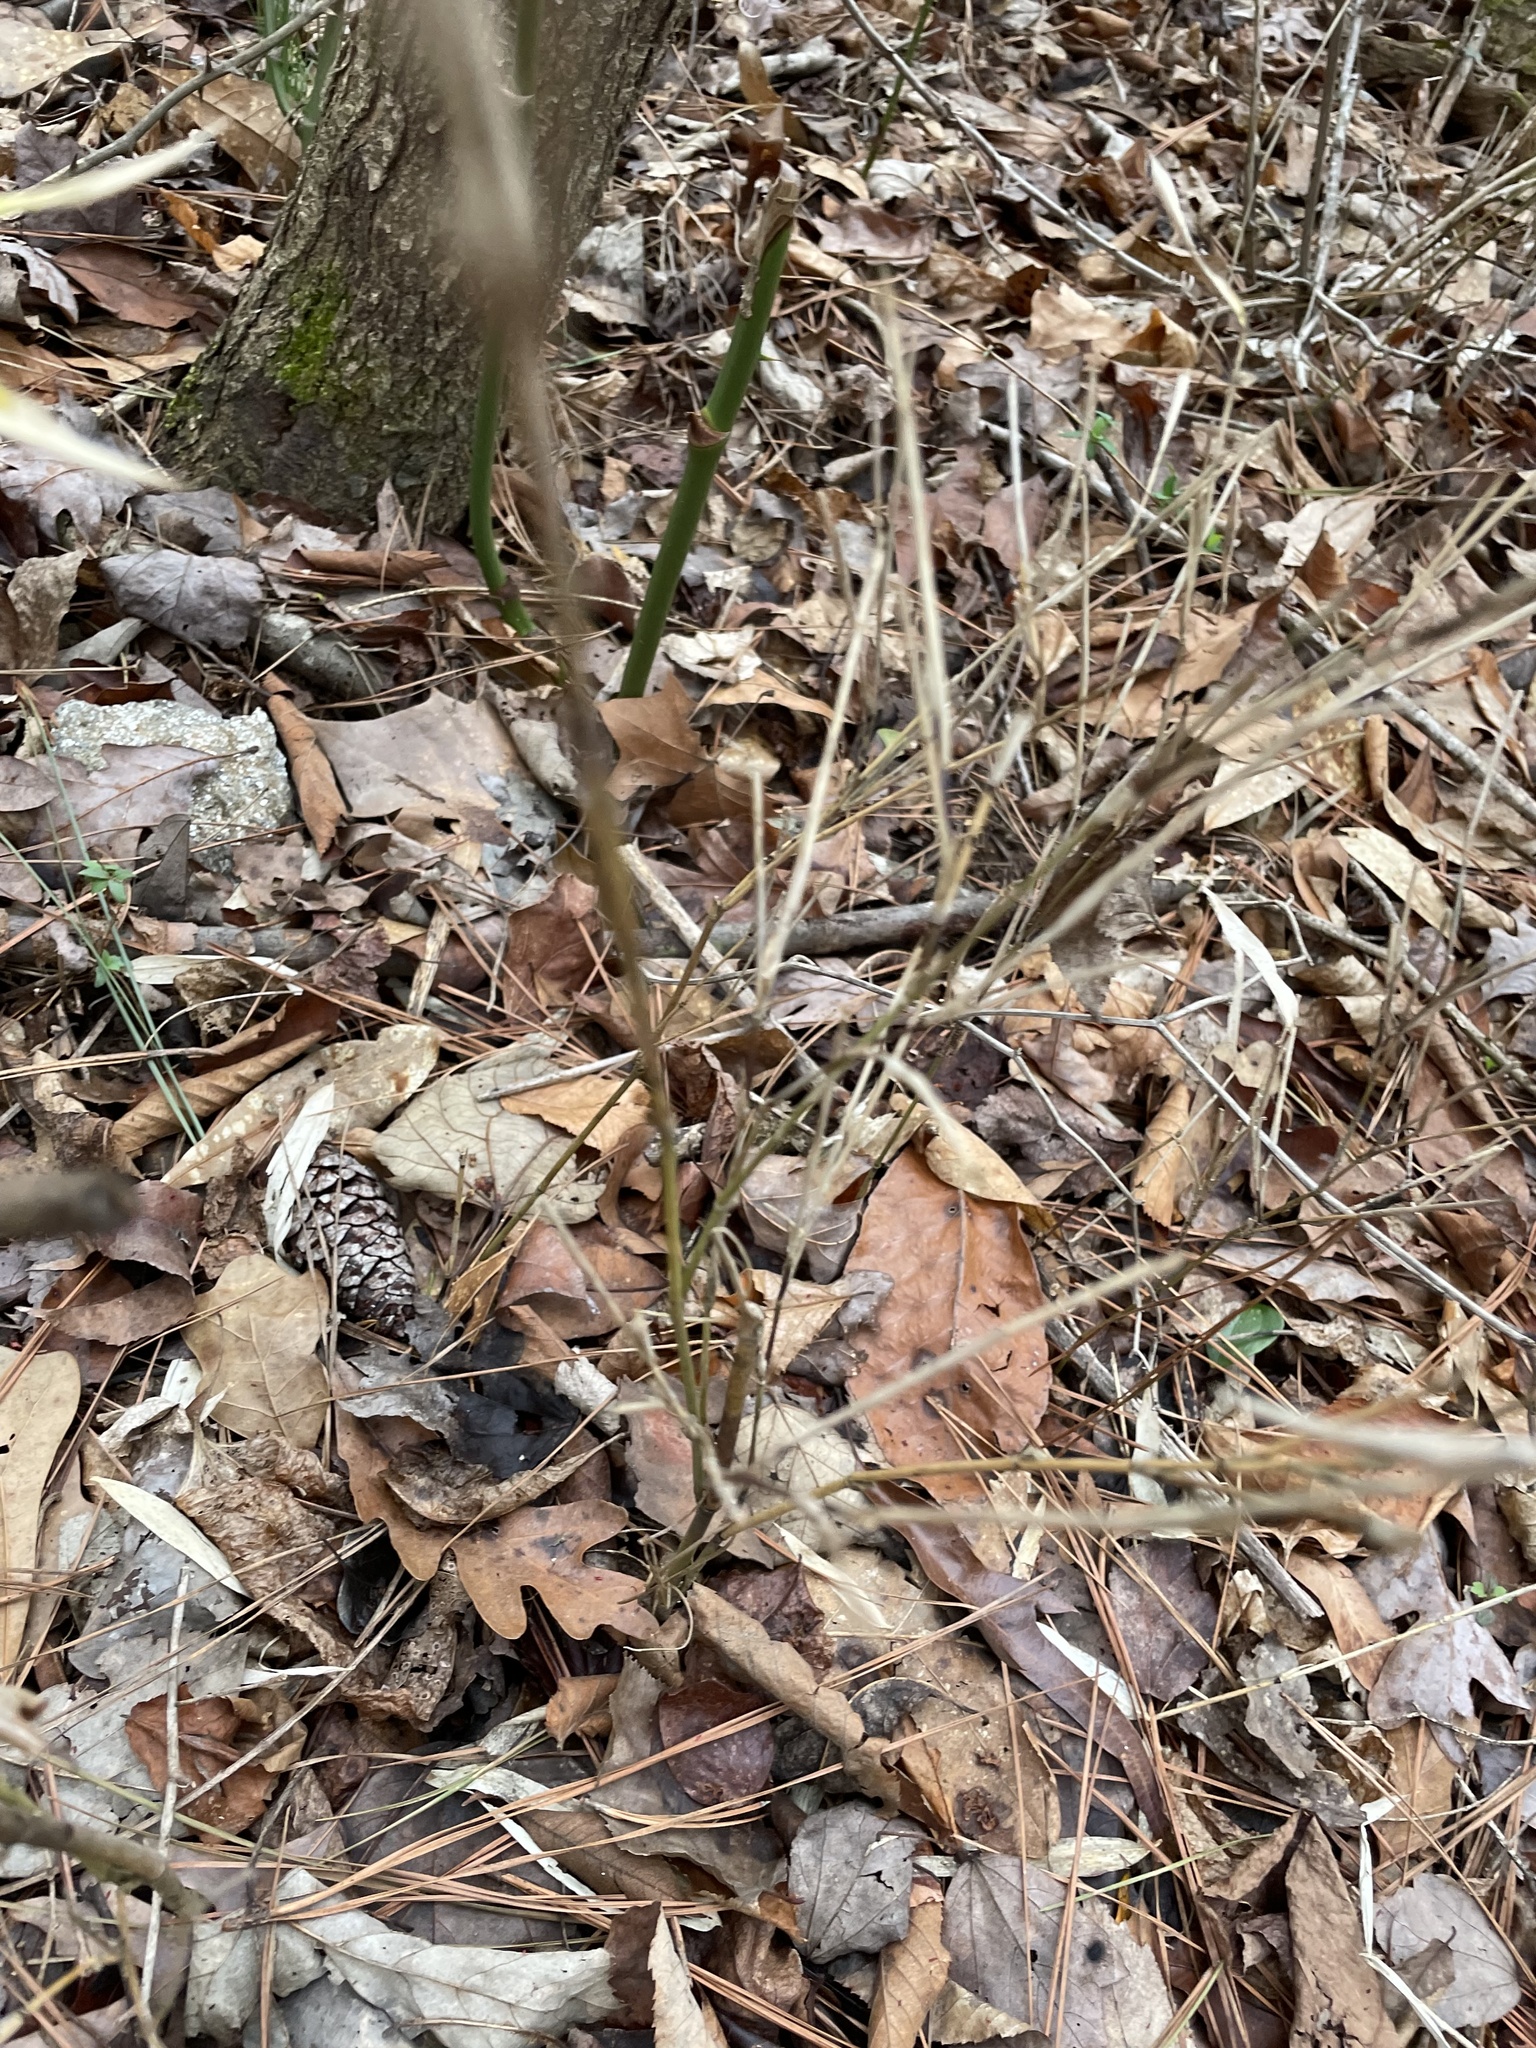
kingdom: Plantae
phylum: Tracheophyta
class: Liliopsida
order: Poales
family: Poaceae
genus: Arundinaria
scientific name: Arundinaria appalachiana
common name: Hill cane
